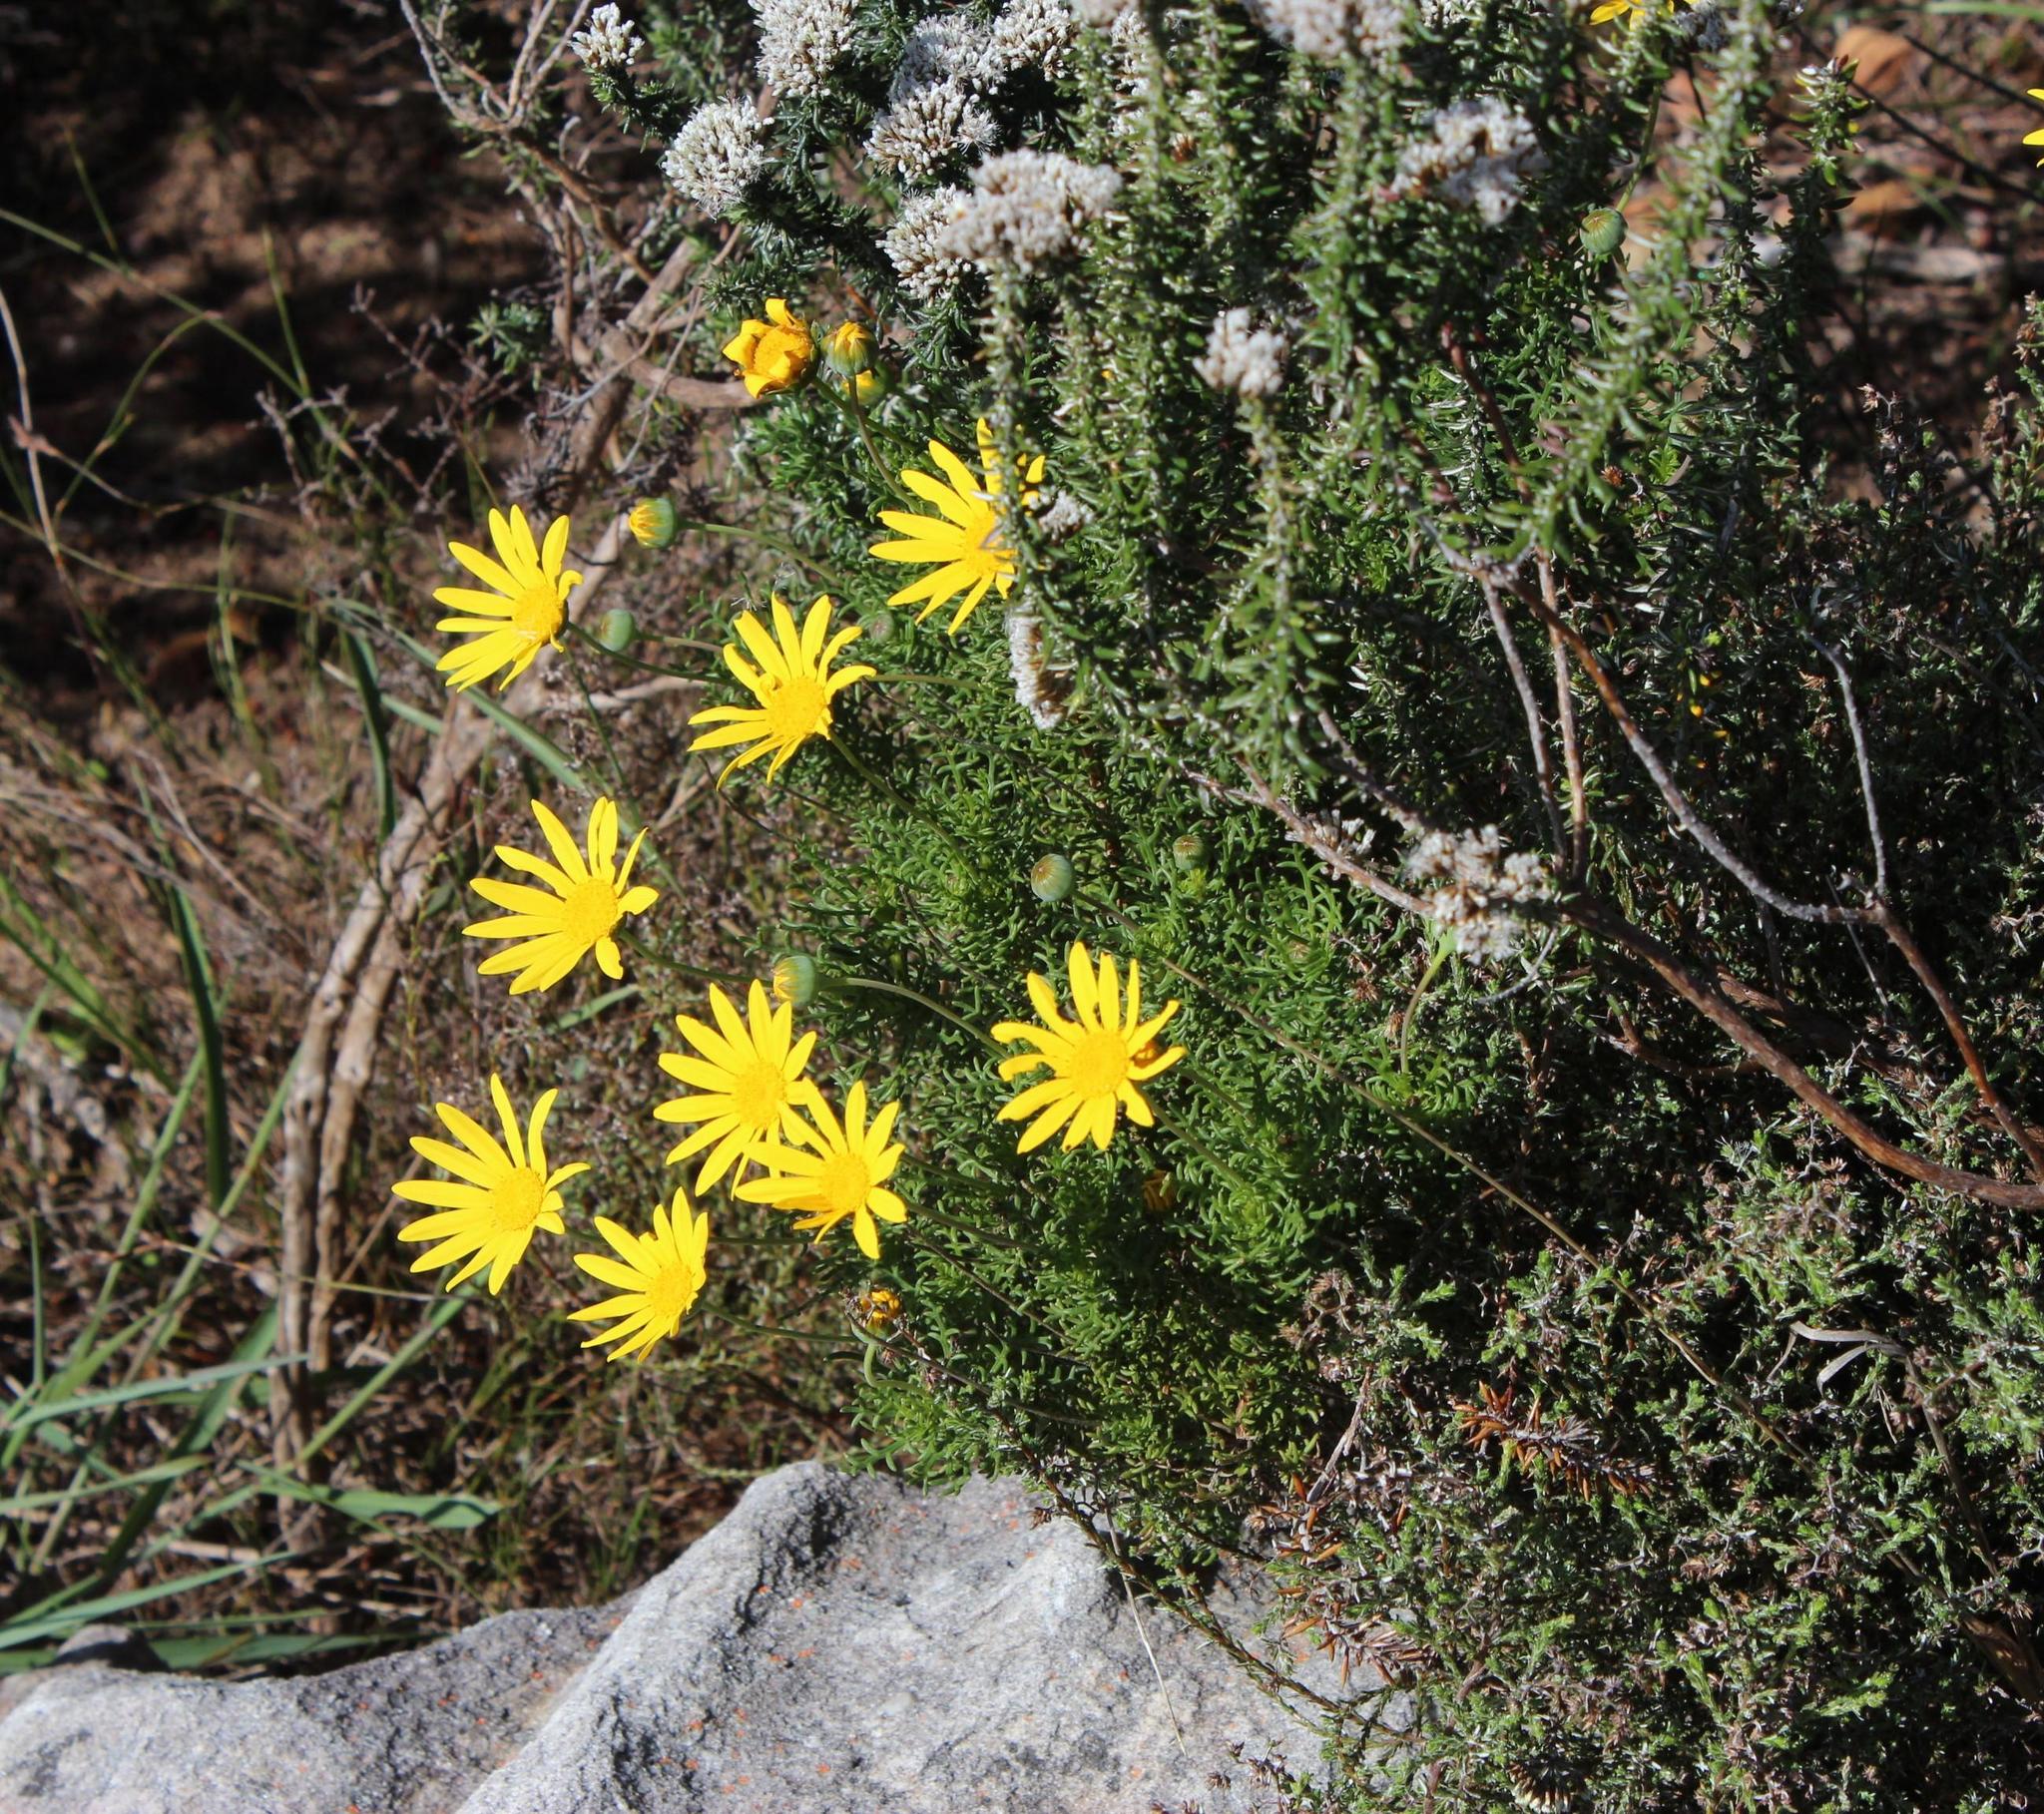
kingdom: Plantae
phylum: Tracheophyta
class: Magnoliopsida
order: Asterales
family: Asteraceae
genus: Euryops
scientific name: Euryops abrotanifolius
